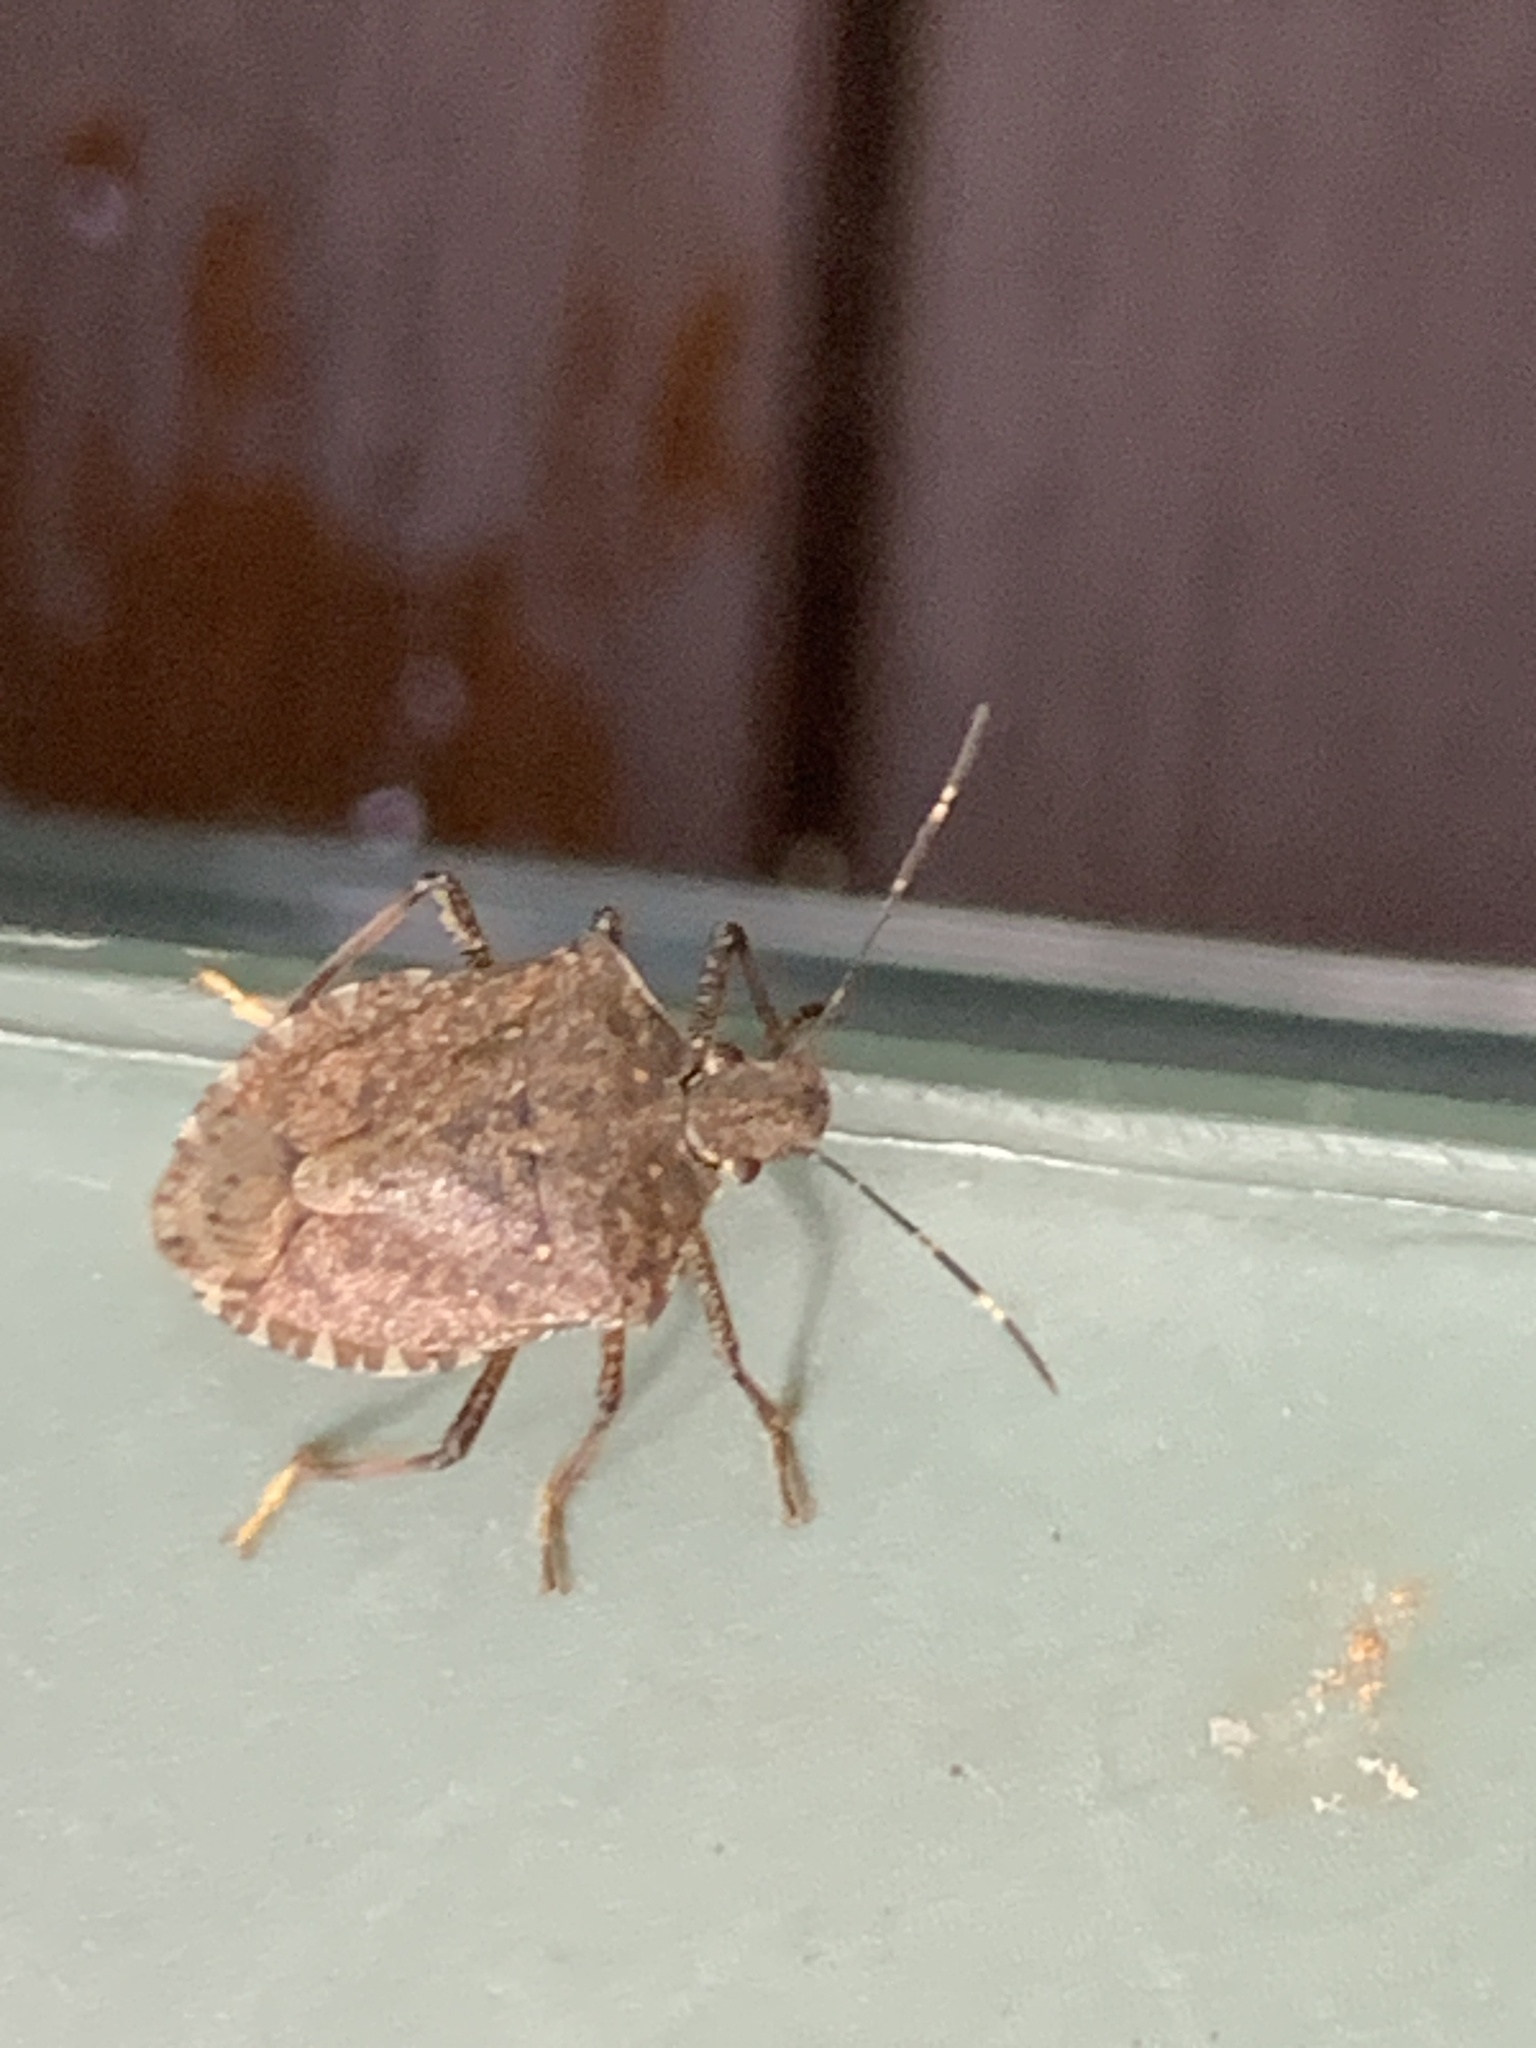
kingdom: Animalia
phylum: Arthropoda
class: Insecta
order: Hemiptera
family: Pentatomidae
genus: Halyomorpha
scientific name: Halyomorpha halys
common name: Brown marmorated stink bug
